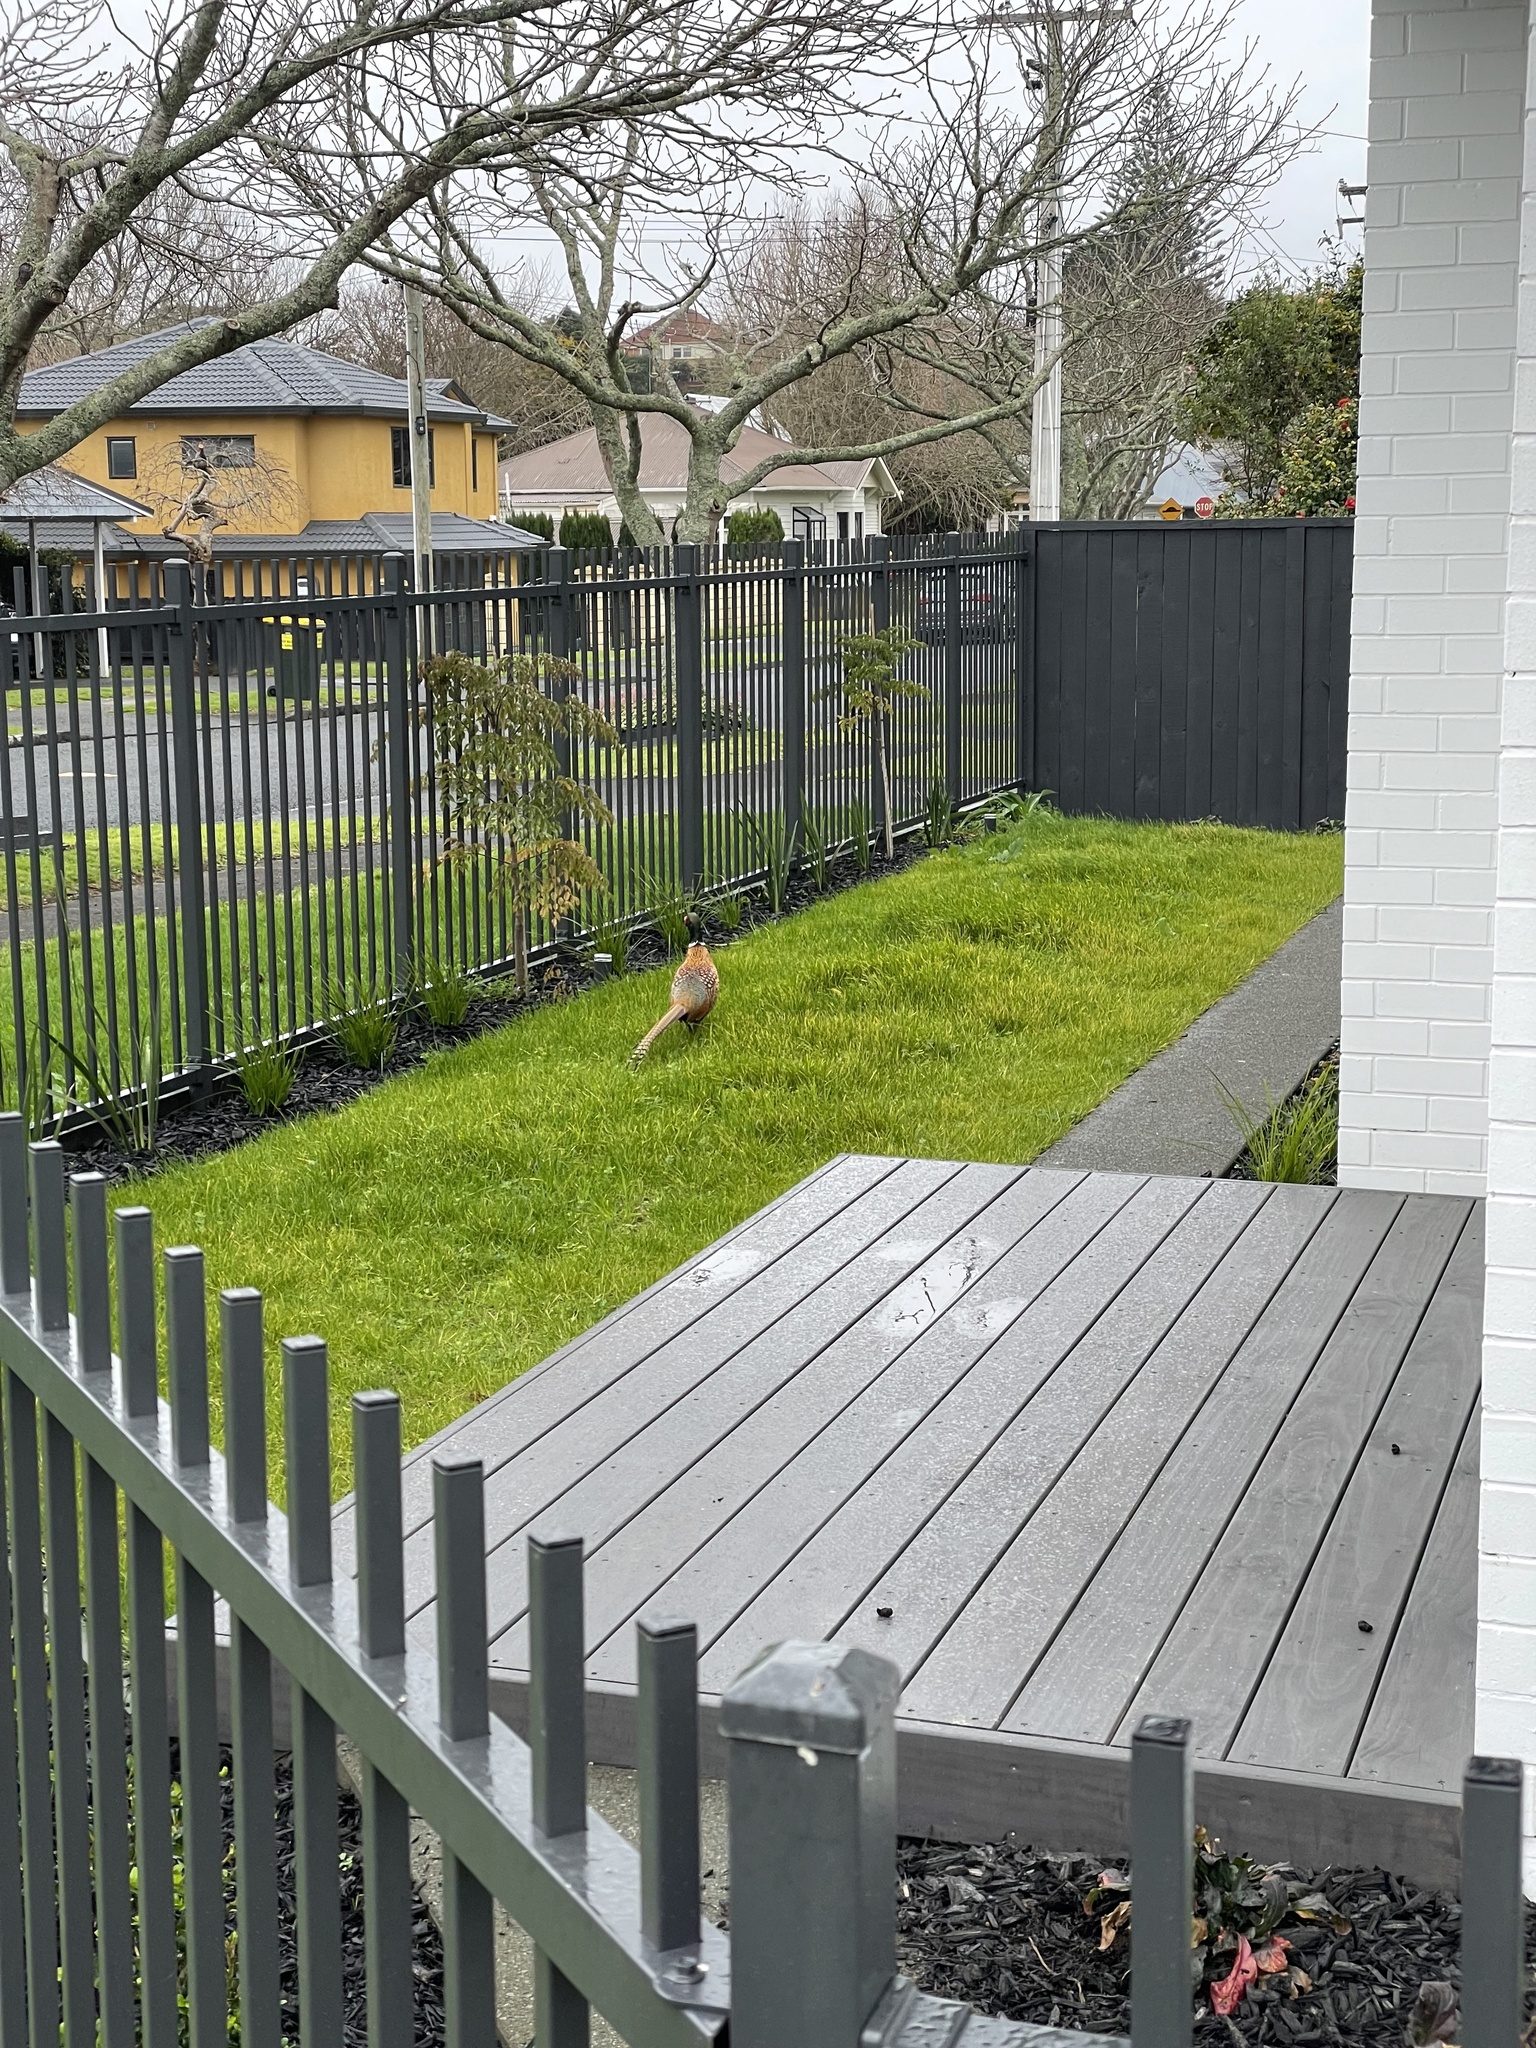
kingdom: Animalia
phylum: Chordata
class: Aves
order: Galliformes
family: Phasianidae
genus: Phasianus
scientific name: Phasianus colchicus
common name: Common pheasant
